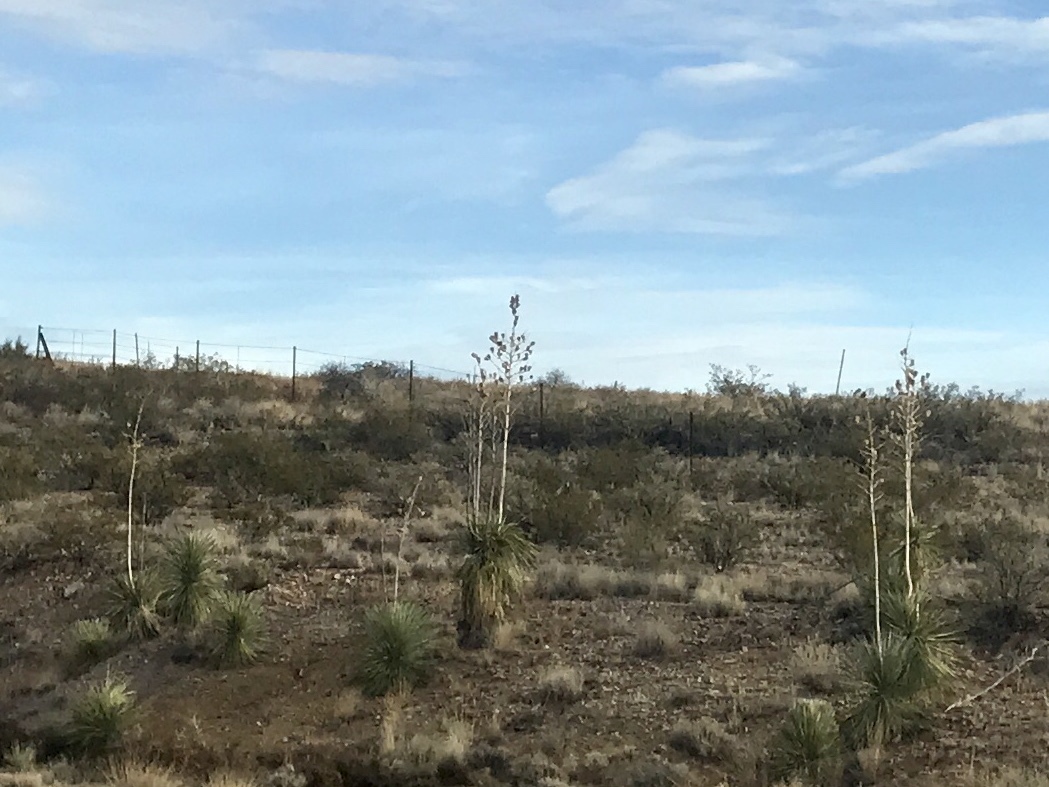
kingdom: Plantae
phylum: Tracheophyta
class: Liliopsida
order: Asparagales
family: Asparagaceae
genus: Yucca
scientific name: Yucca elata
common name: Palmella
